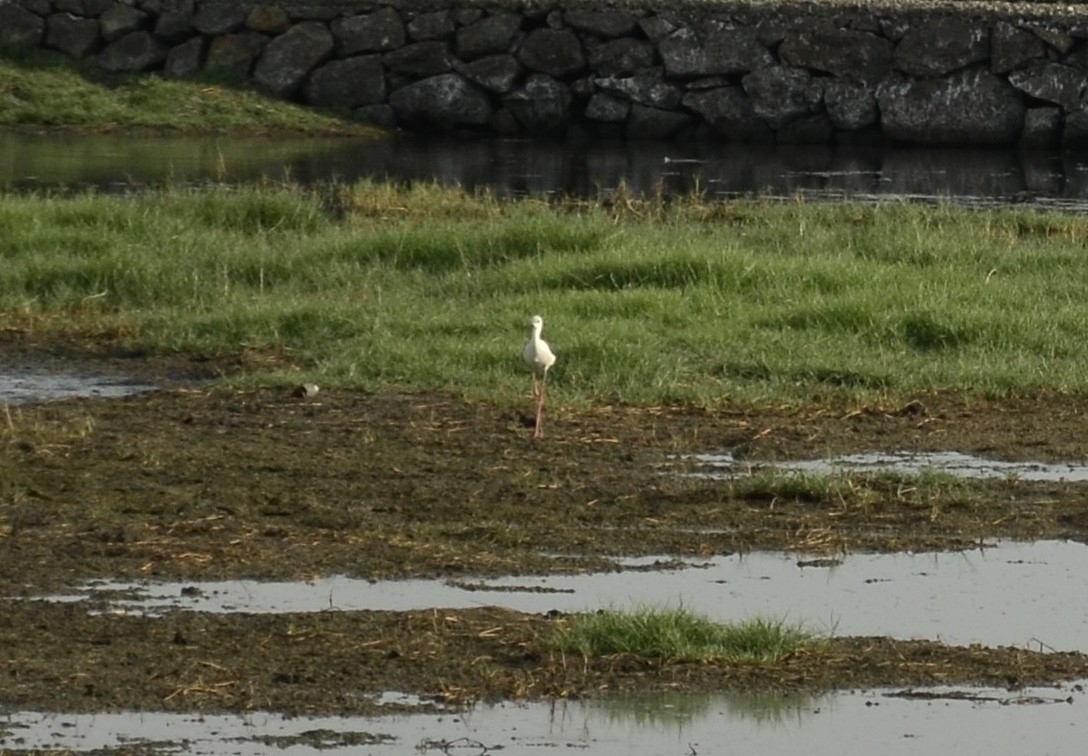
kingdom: Animalia
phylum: Chordata
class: Aves
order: Charadriiformes
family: Recurvirostridae
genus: Himantopus
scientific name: Himantopus himantopus
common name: Black-winged stilt
